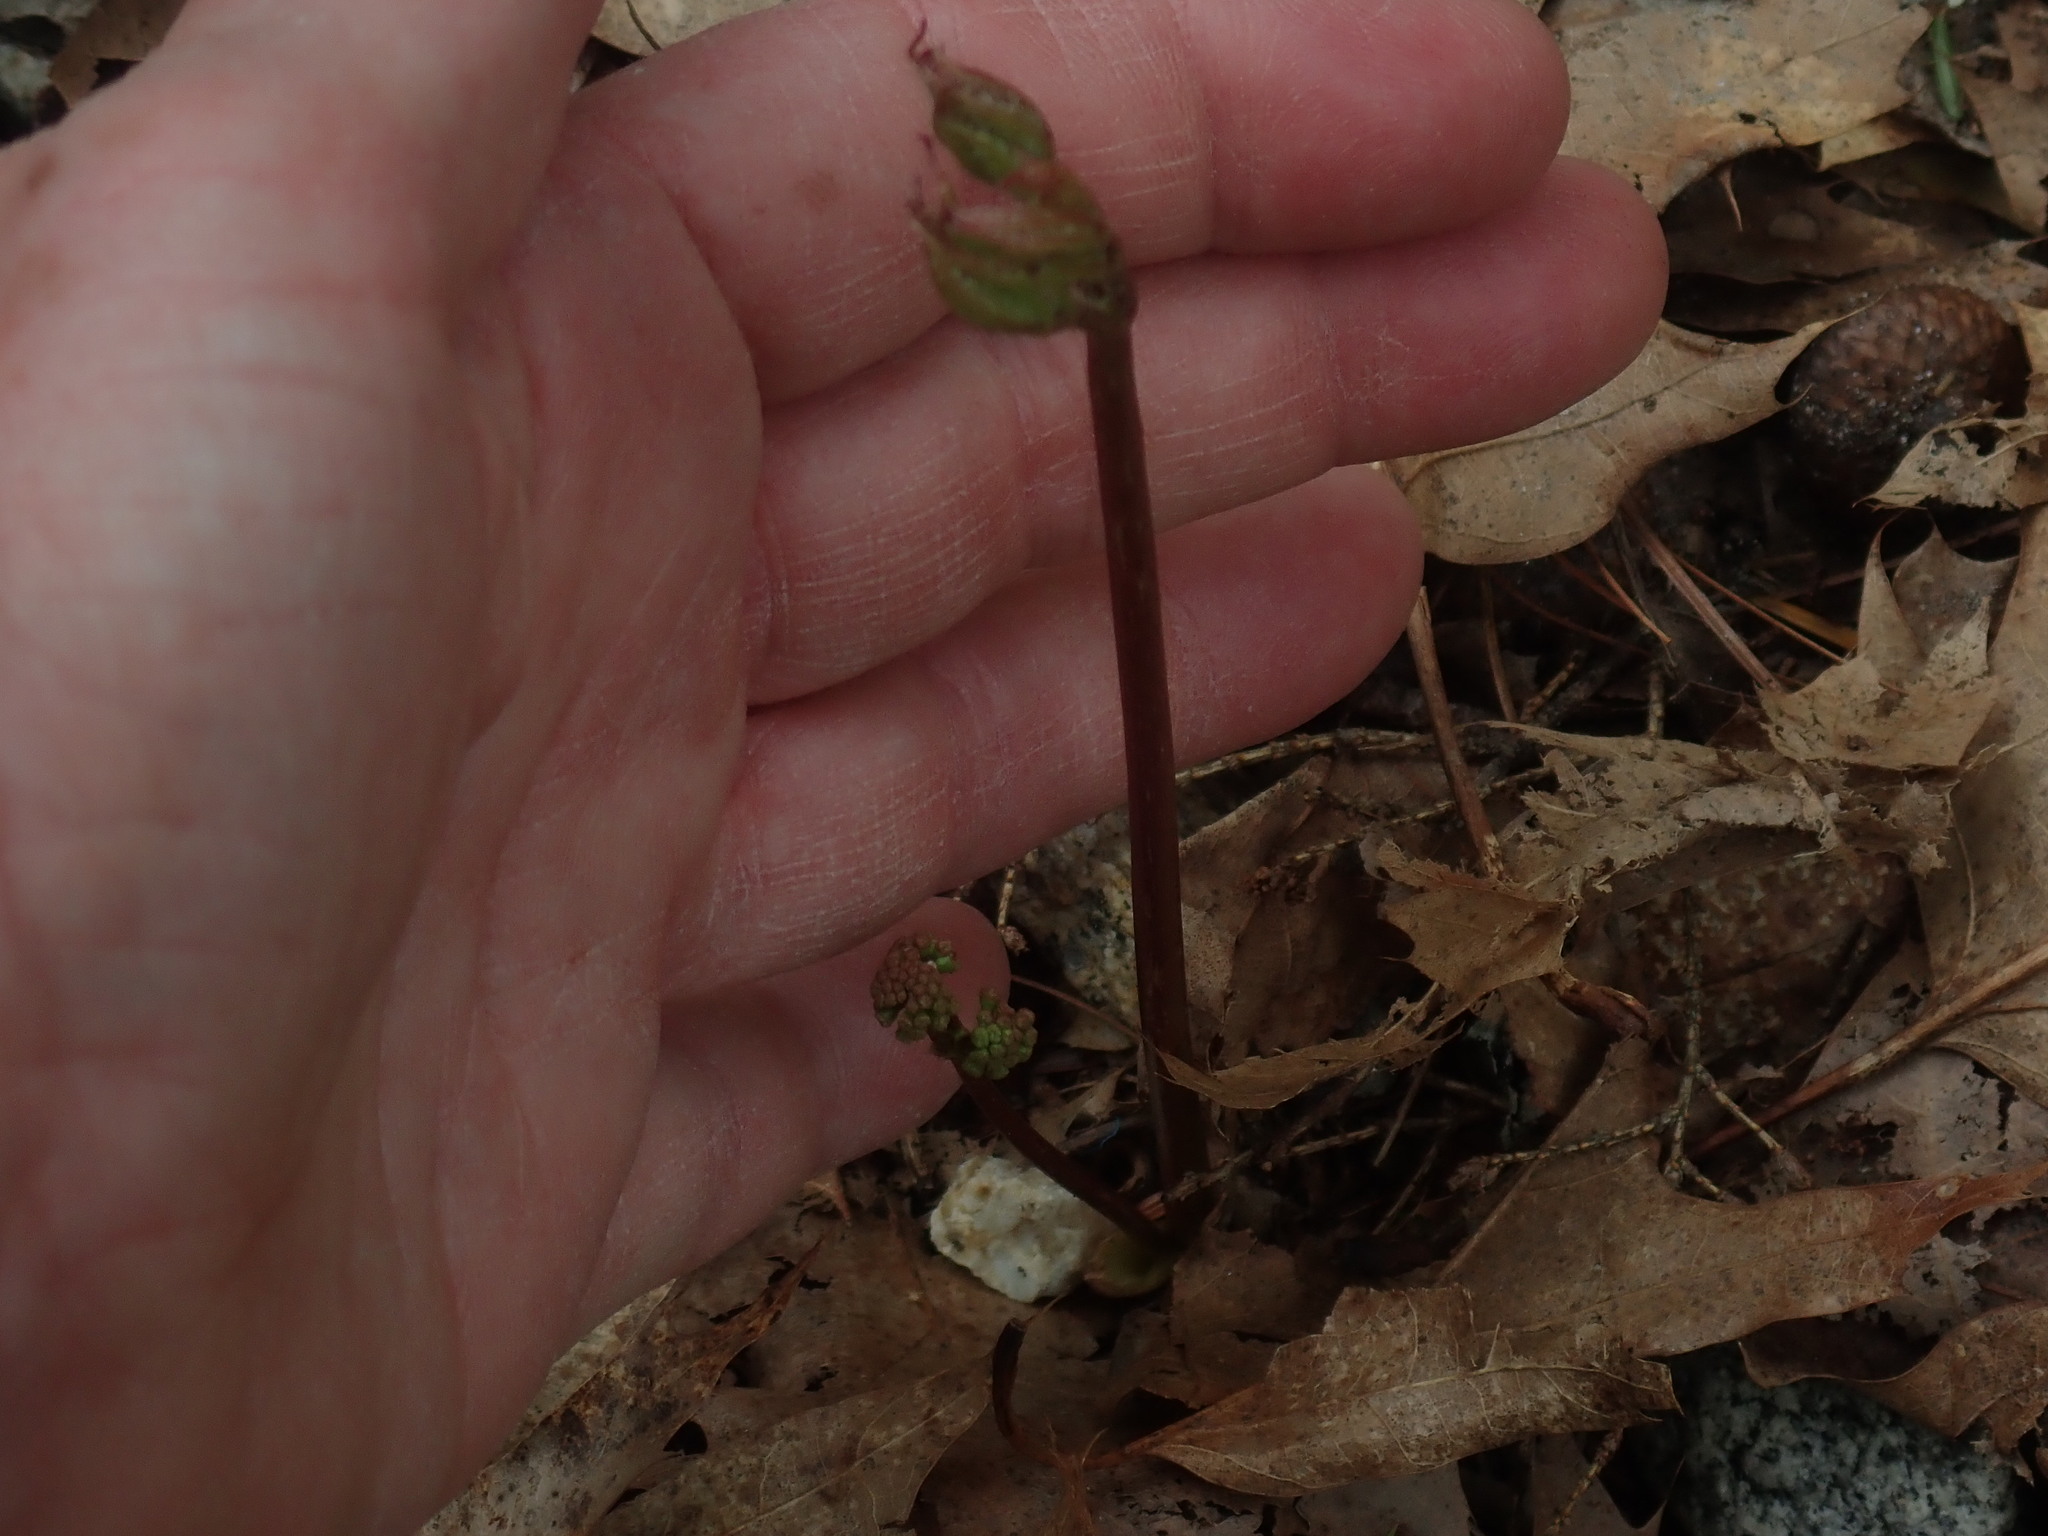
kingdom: Plantae
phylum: Tracheophyta
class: Magnoliopsida
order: Apiales
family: Araliaceae
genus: Aralia
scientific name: Aralia nudicaulis
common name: Wild sarsaparilla
